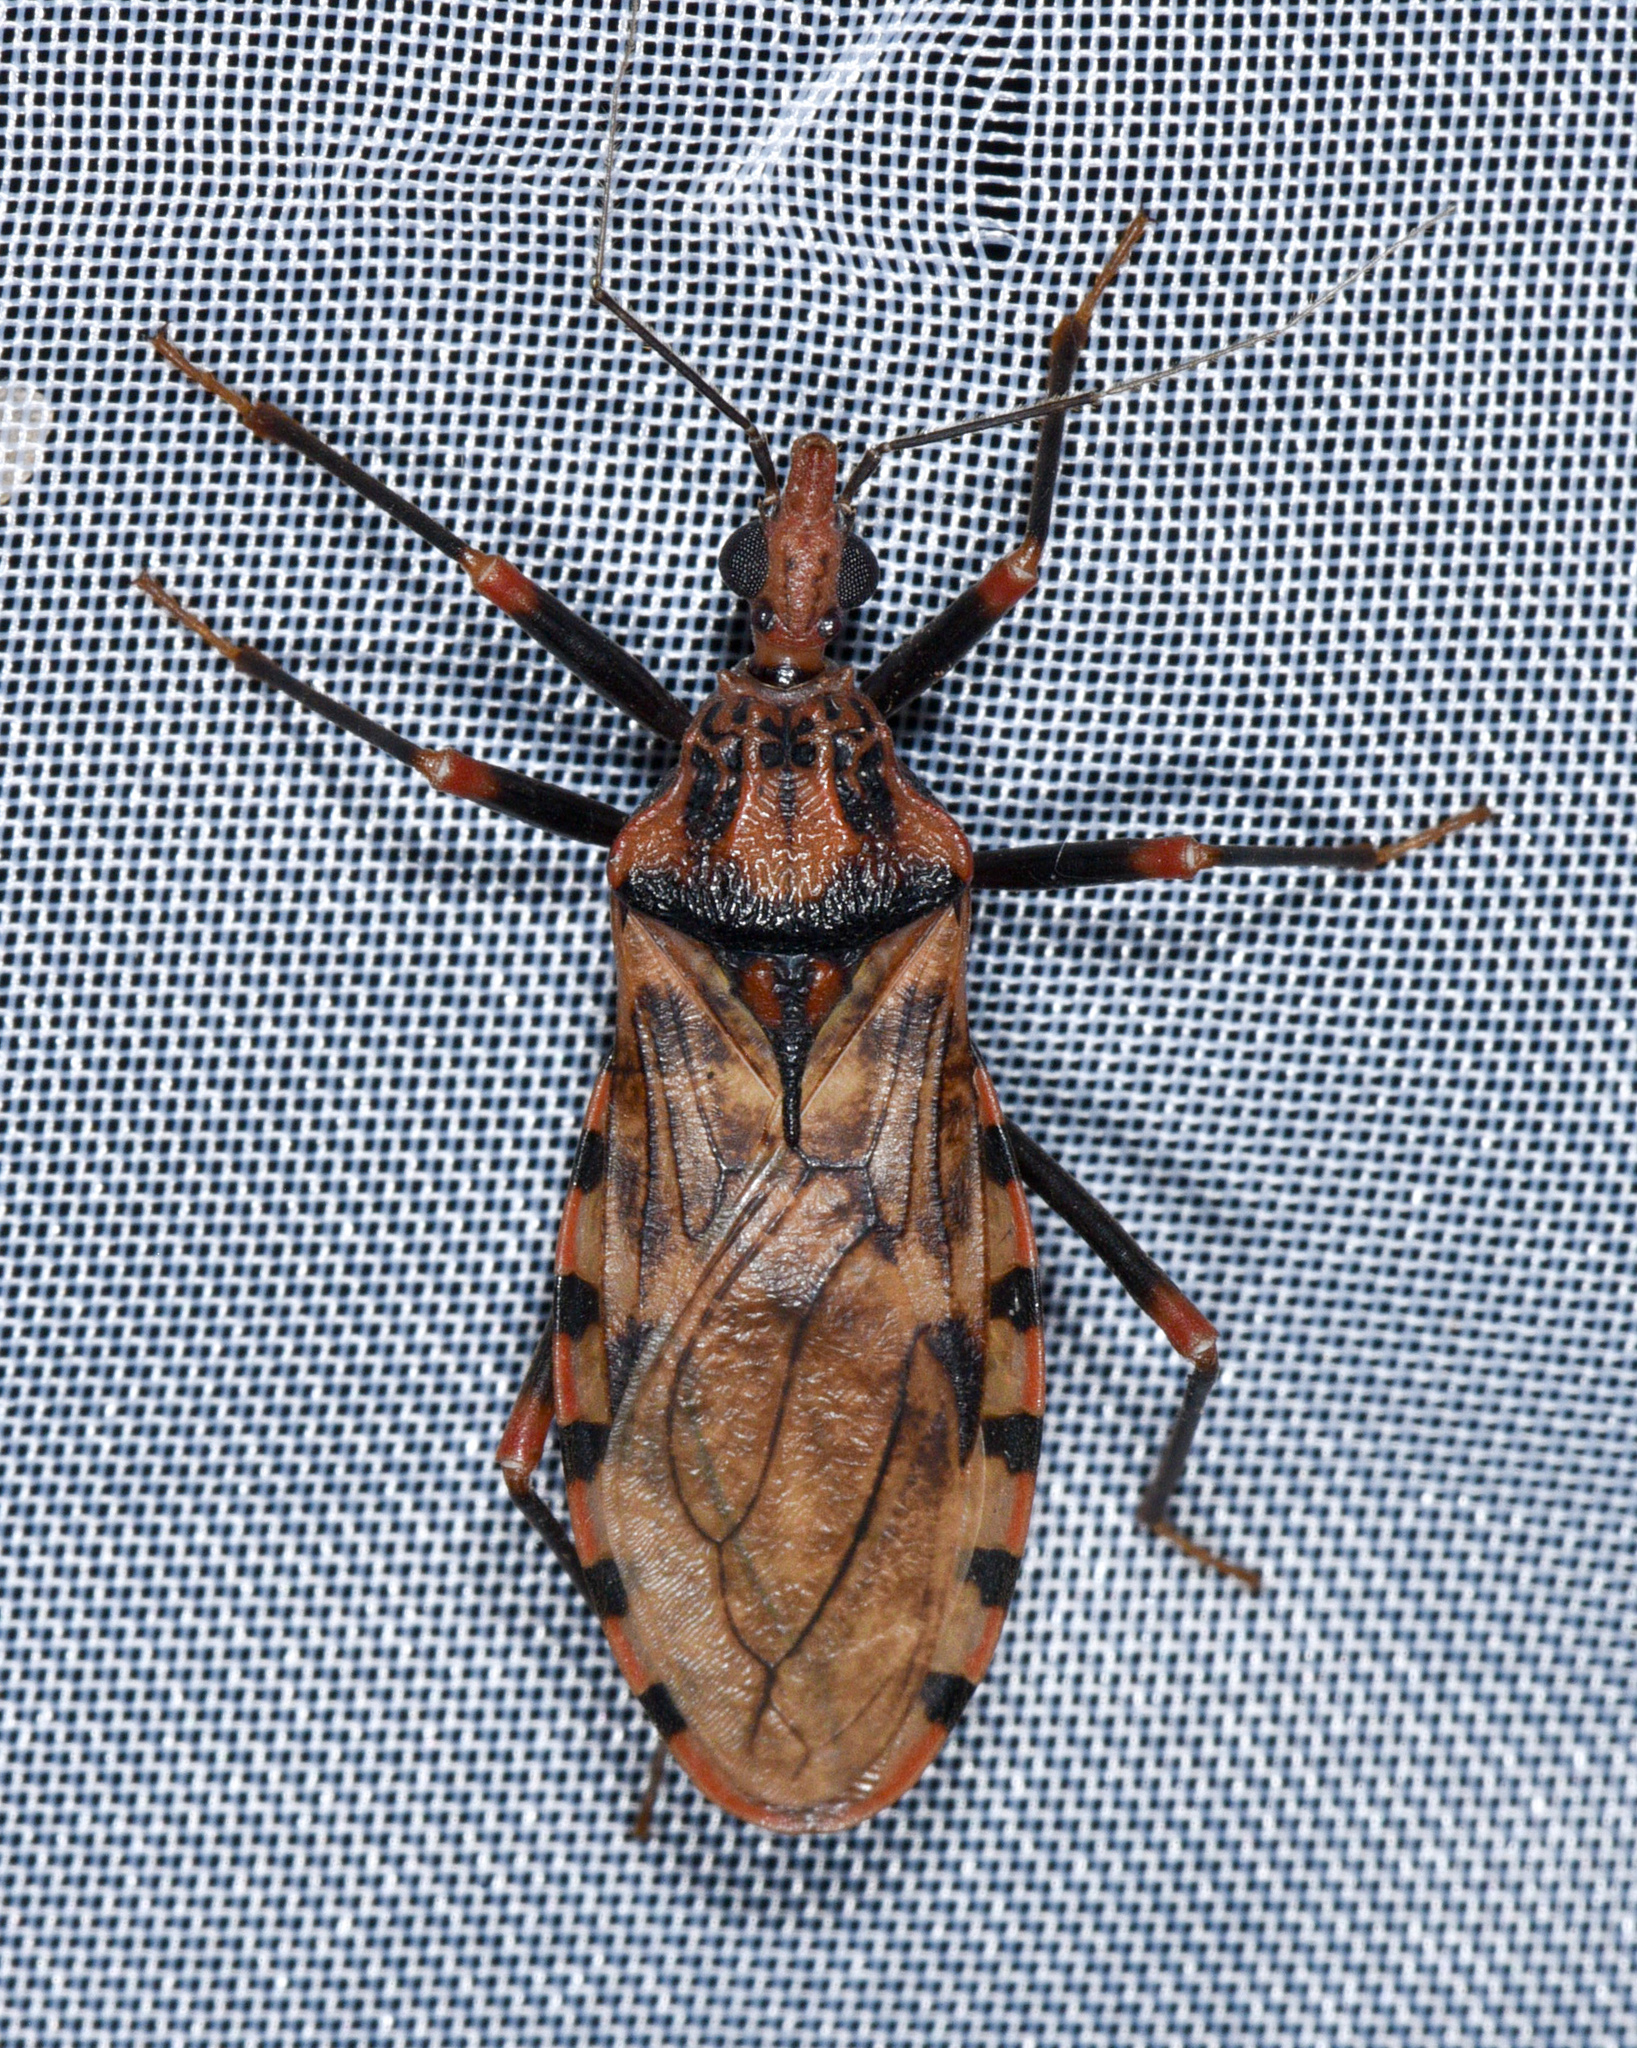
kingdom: Animalia
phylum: Arthropoda
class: Insecta
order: Hemiptera
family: Reduviidae
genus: Panstrongylus
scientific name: Panstrongylus geniculatus
